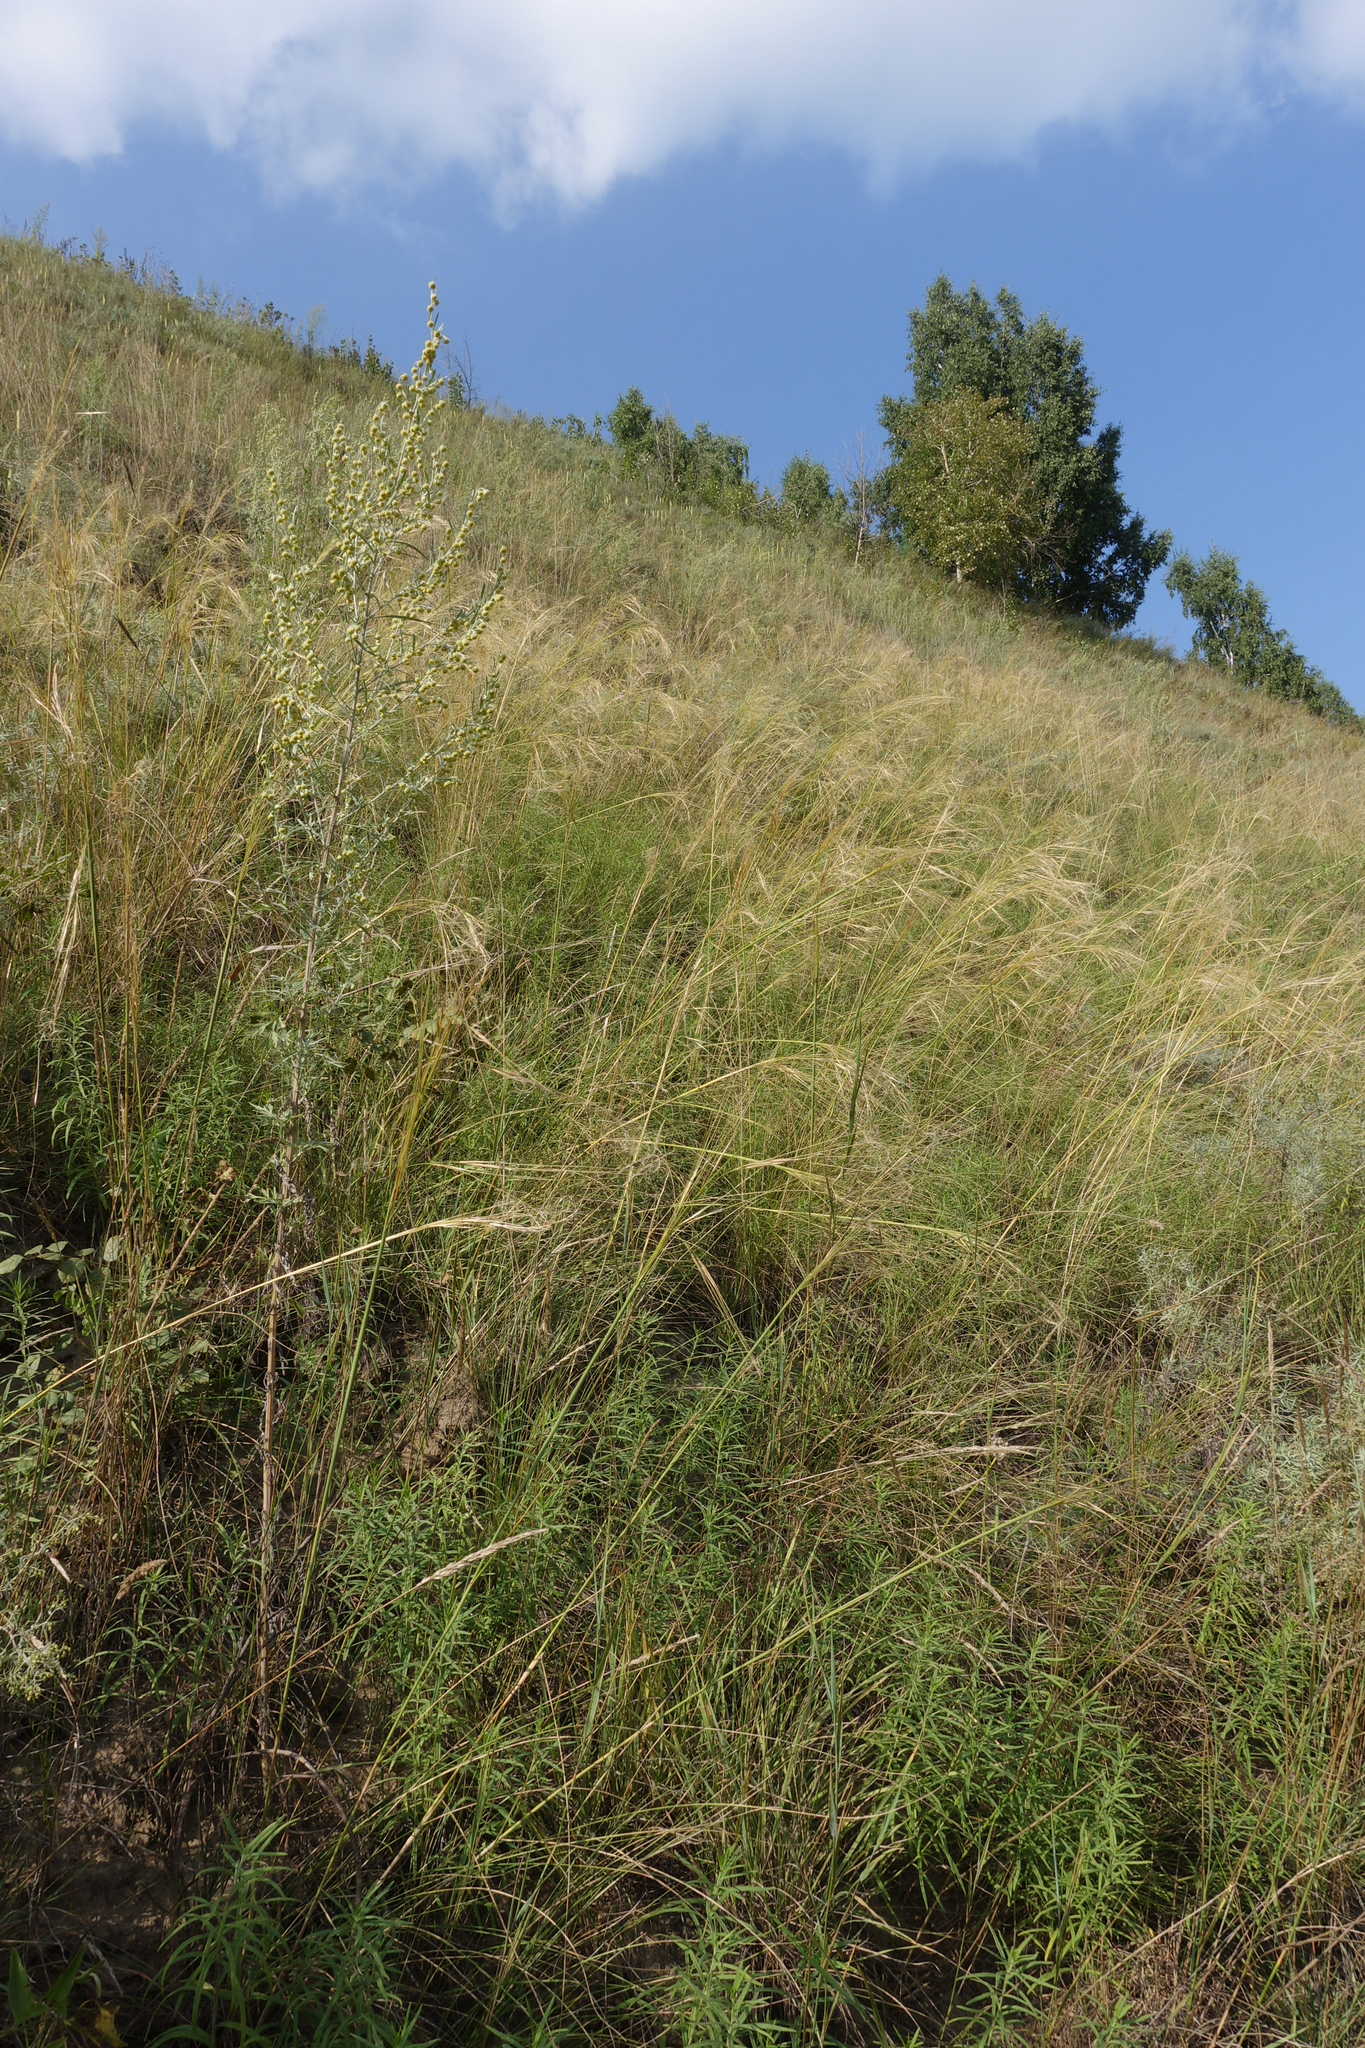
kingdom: Plantae
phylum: Tracheophyta
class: Liliopsida
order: Poales
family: Poaceae
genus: Stipa
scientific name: Stipa capillata
